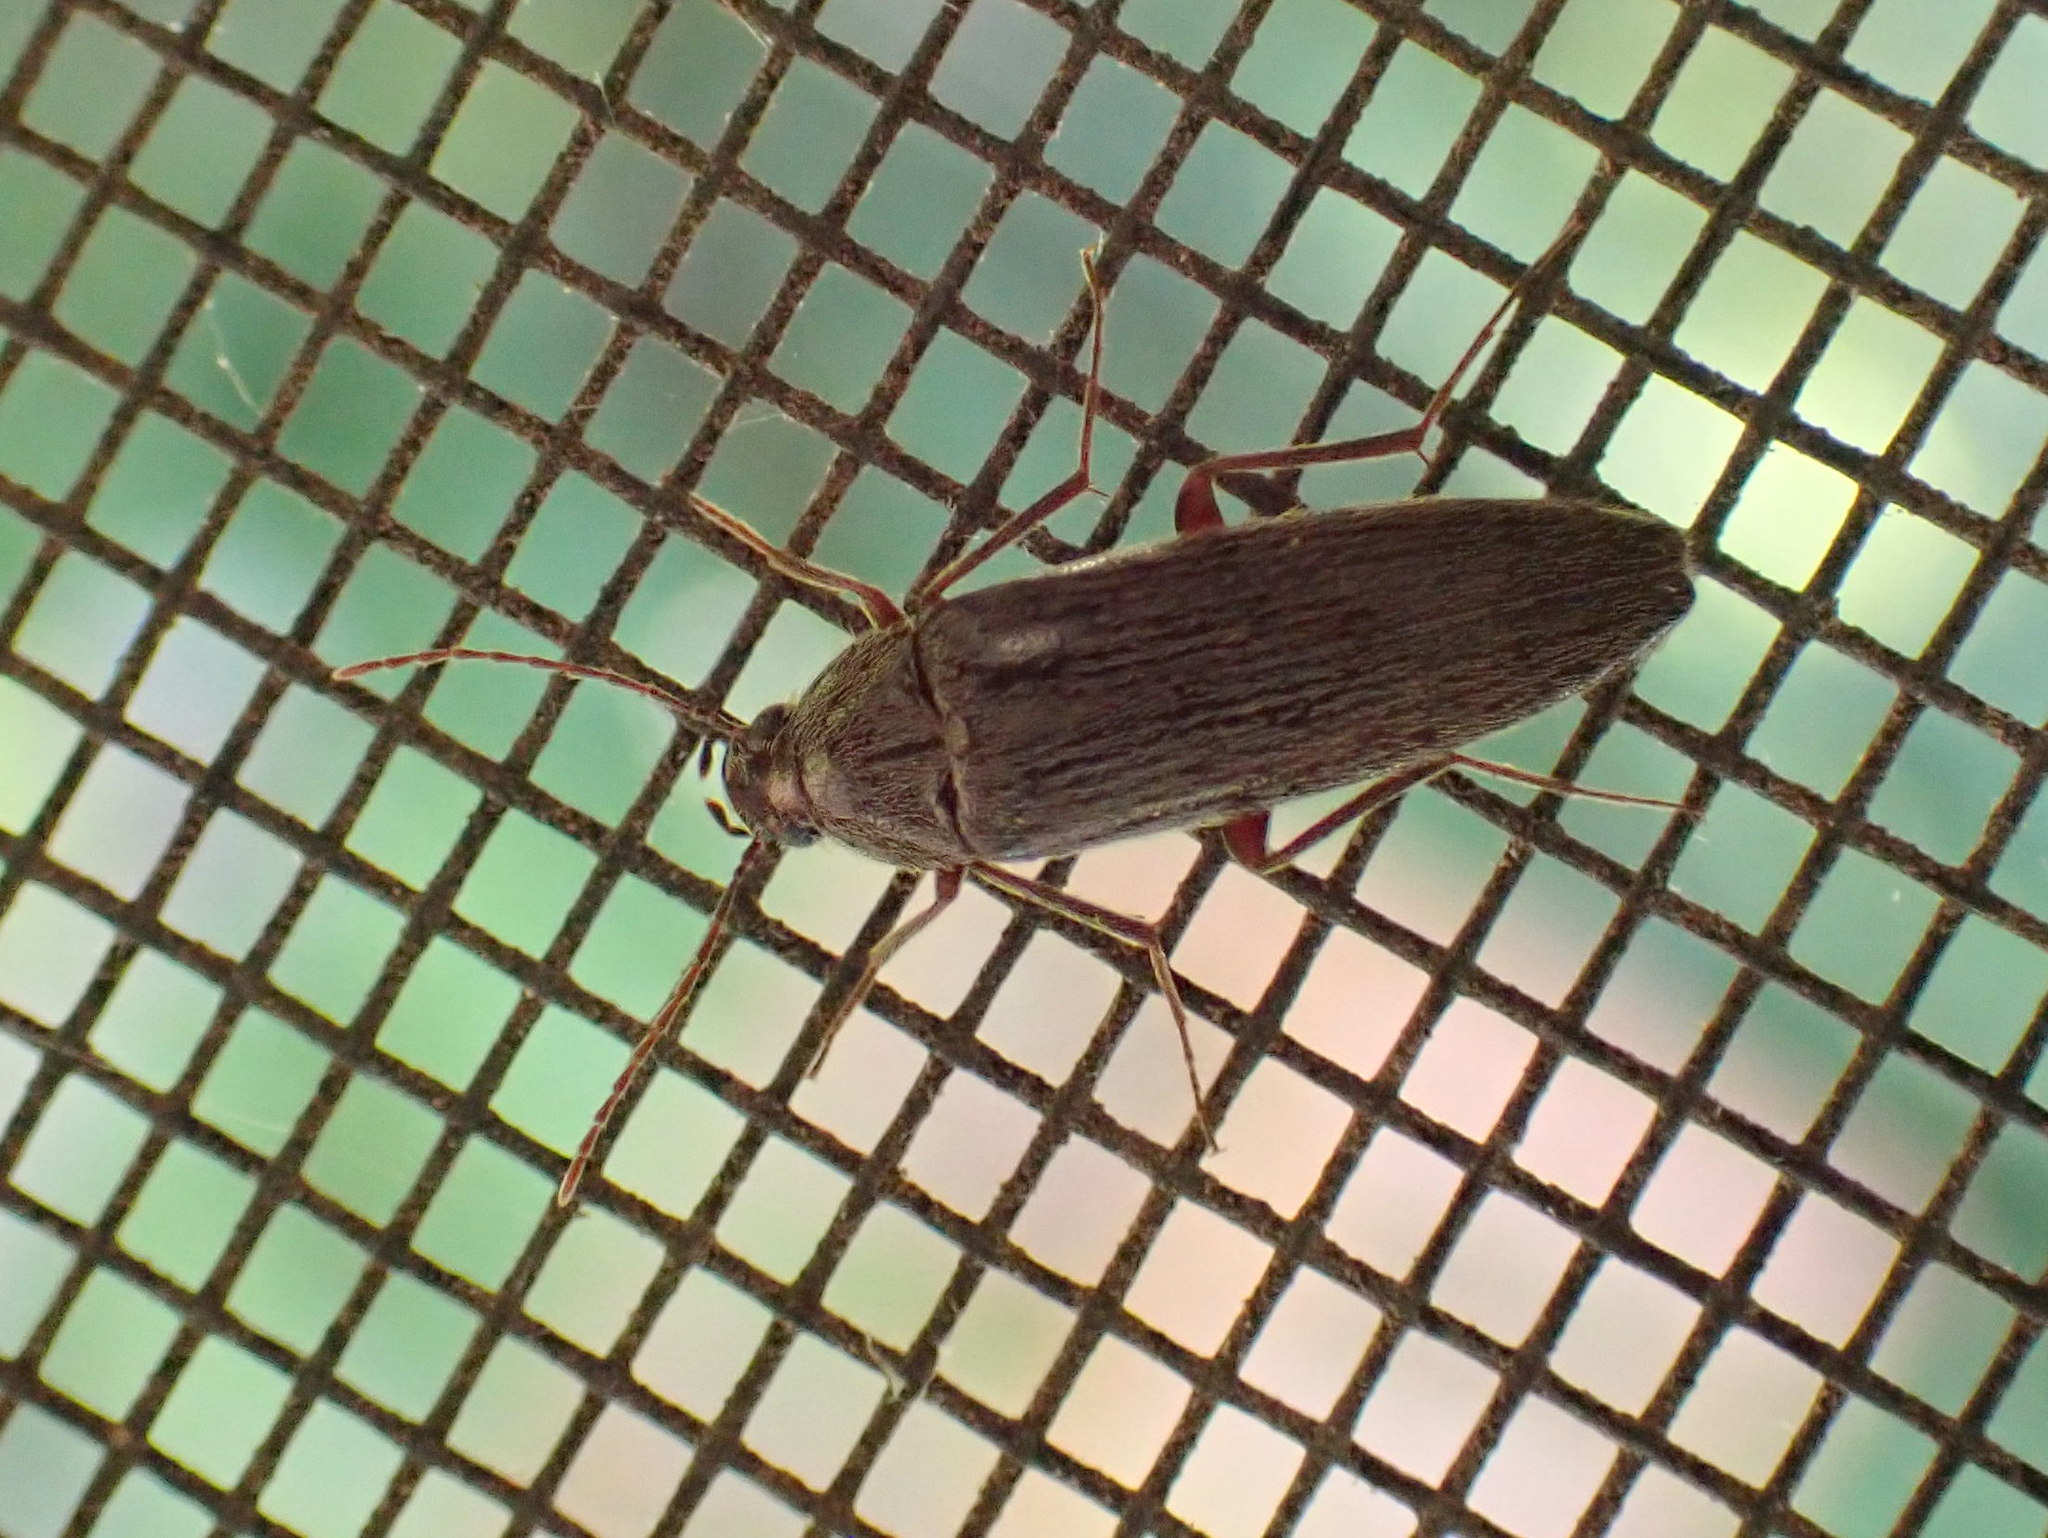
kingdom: Animalia
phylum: Arthropoda
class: Insecta
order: Coleoptera
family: Synchroidae
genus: Synchroa
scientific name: Synchroa punctata
